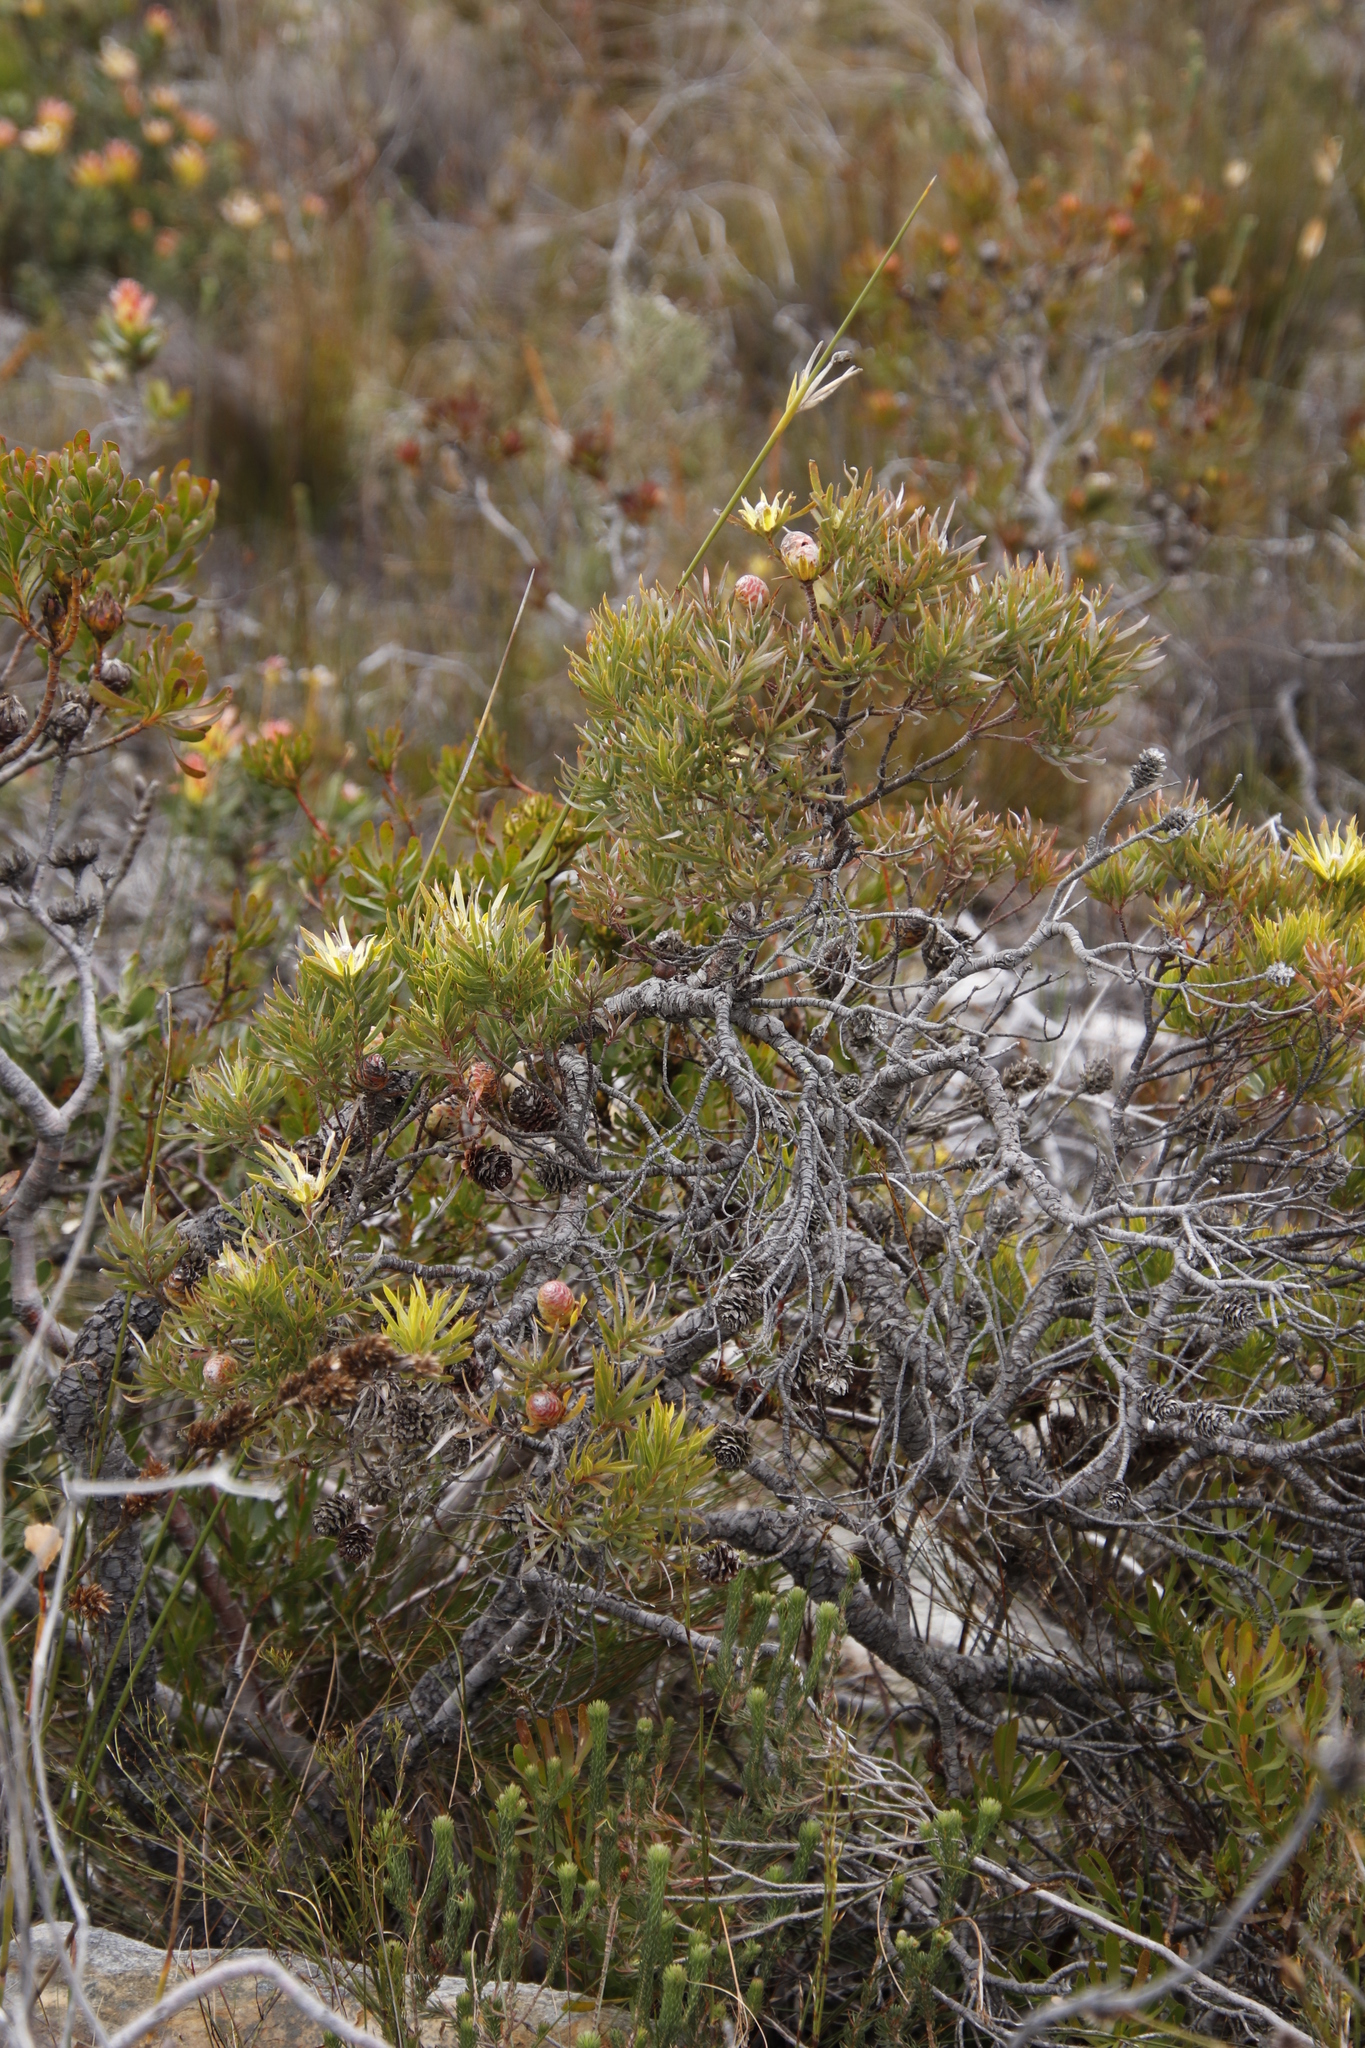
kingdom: Plantae
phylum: Tracheophyta
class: Magnoliopsida
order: Proteales
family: Proteaceae
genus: Leucadendron
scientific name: Leucadendron xanthoconus
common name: Sickle-leaf conebush
